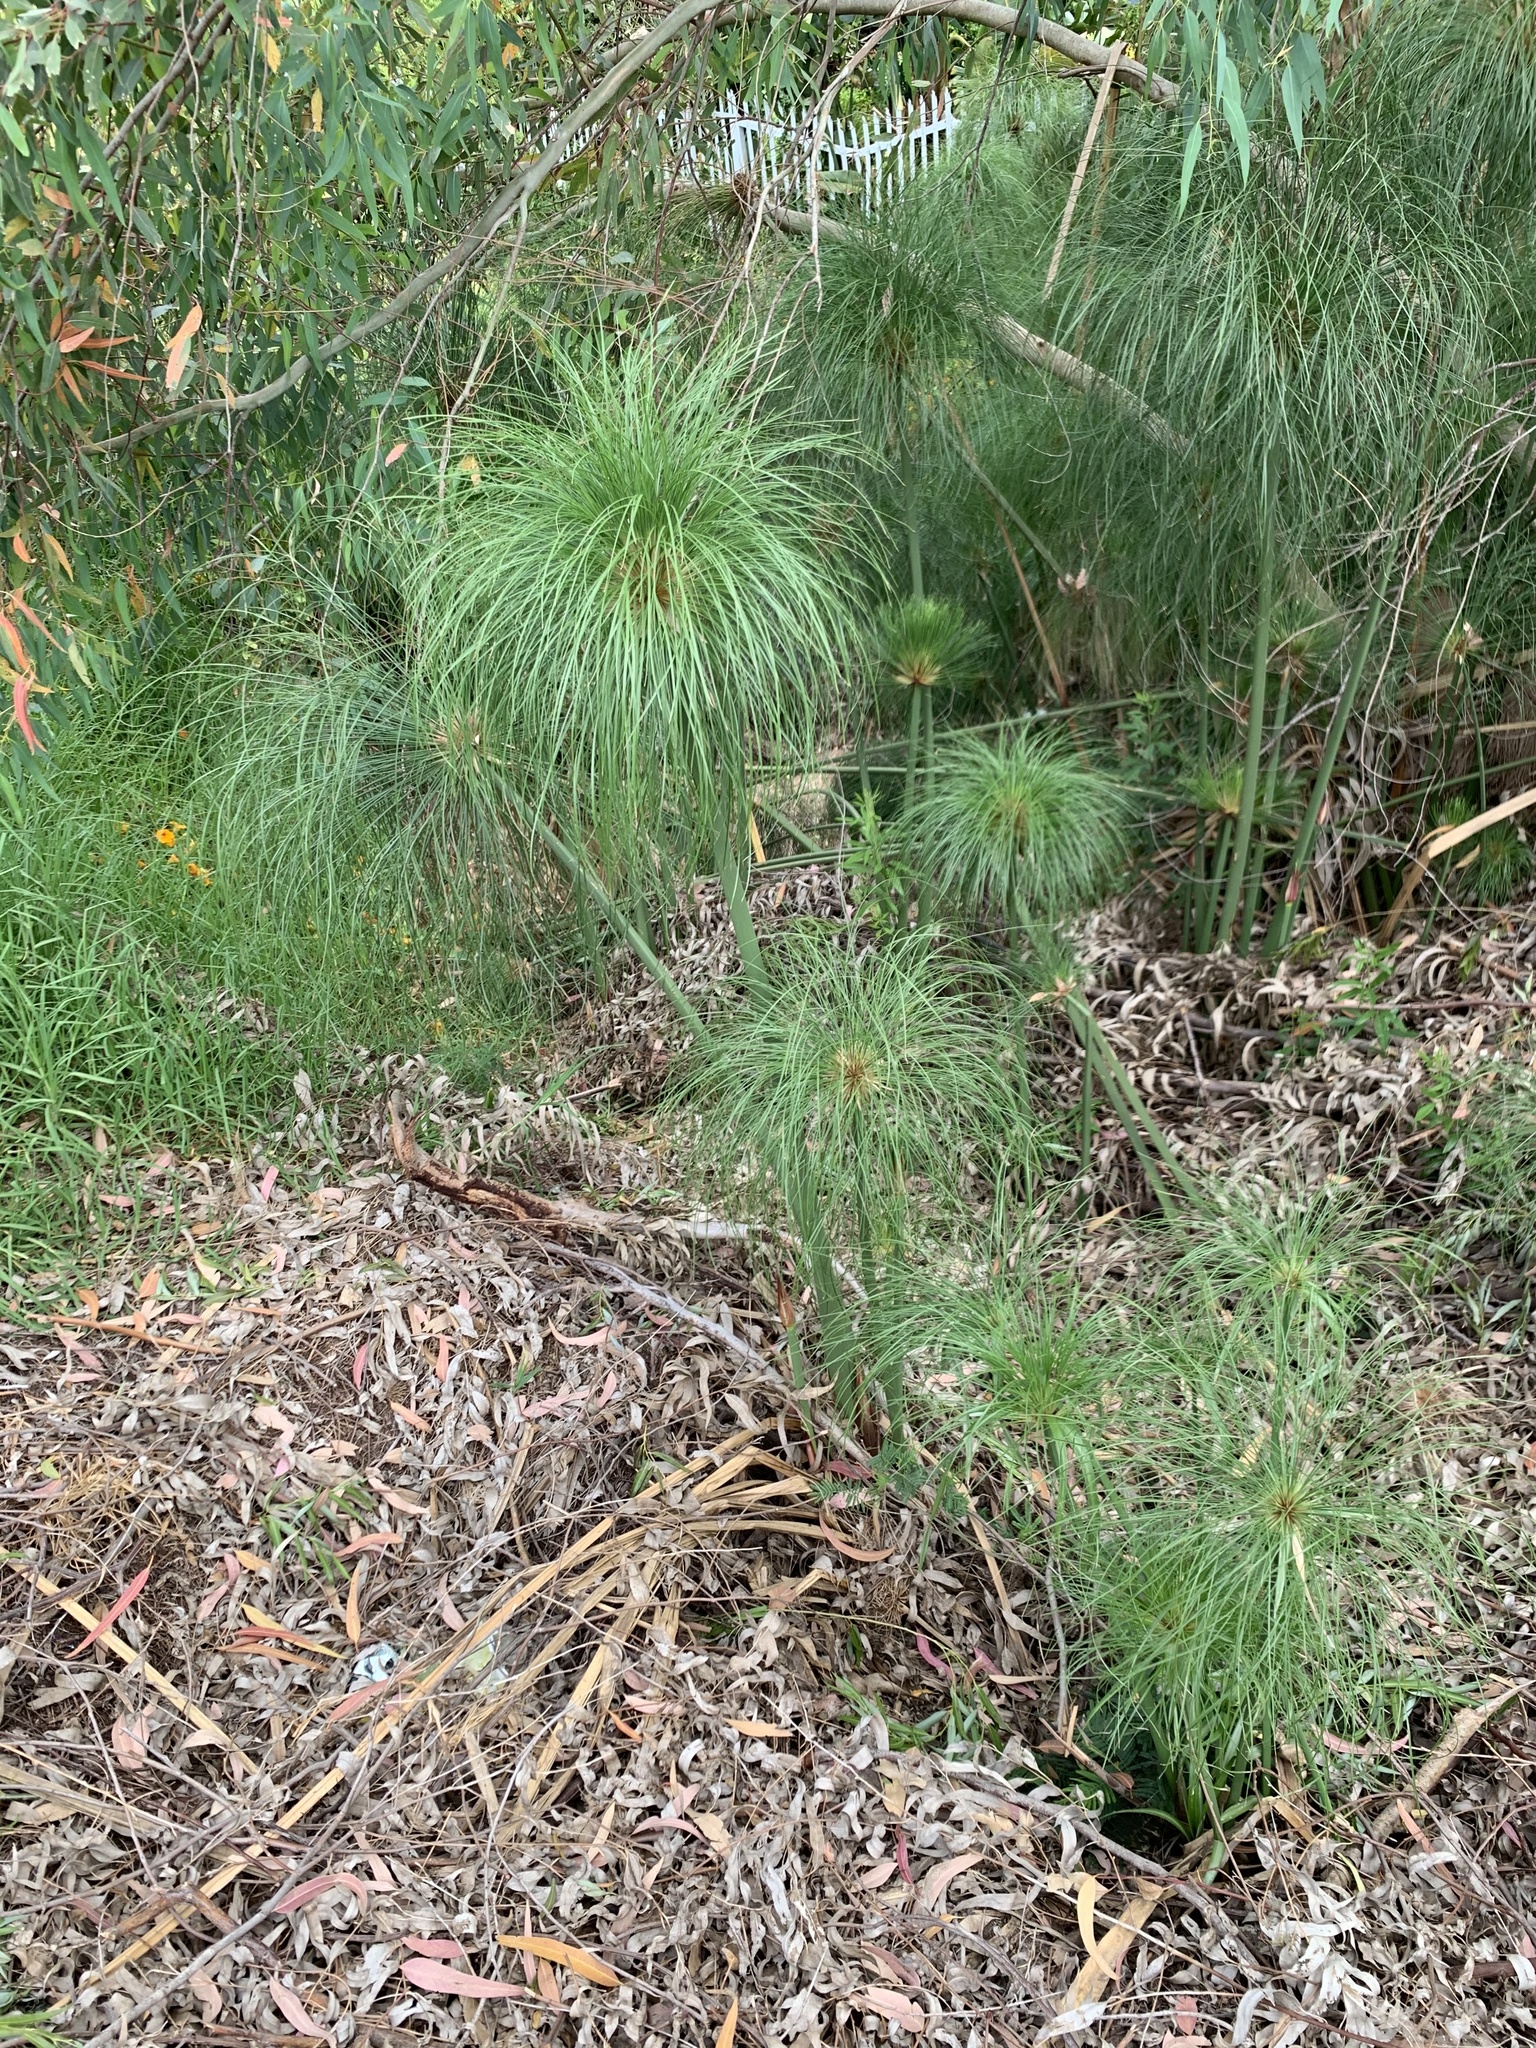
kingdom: Plantae
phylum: Tracheophyta
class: Liliopsida
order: Poales
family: Cyperaceae
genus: Cyperus
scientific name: Cyperus papyrus
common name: Papyrus
